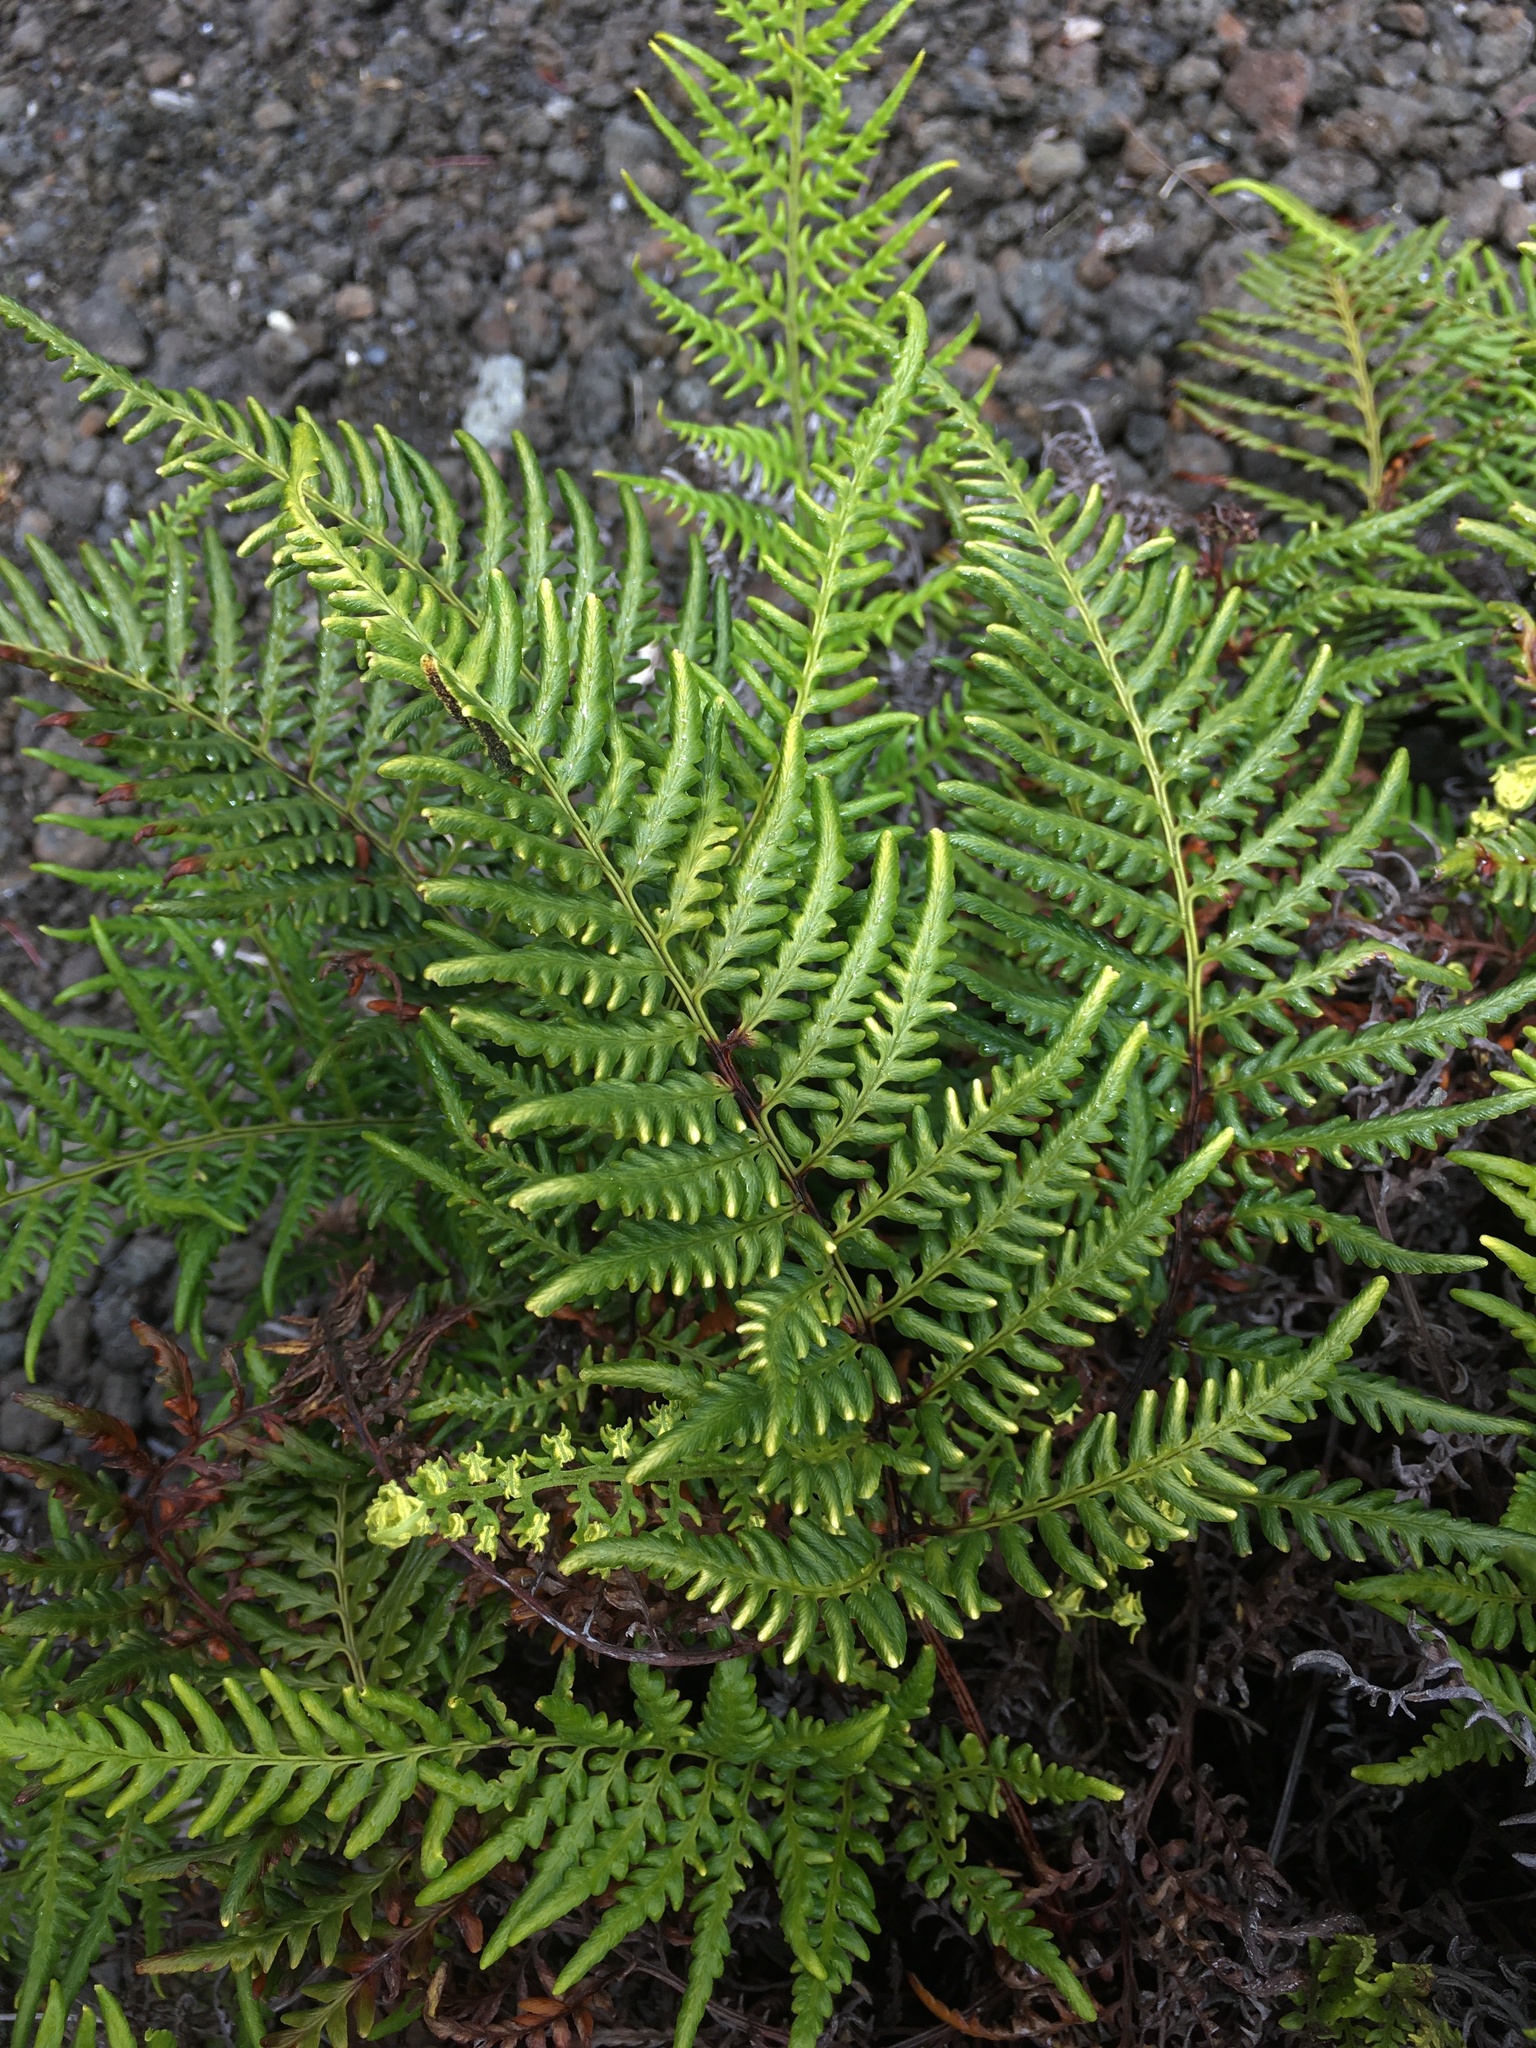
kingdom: Plantae
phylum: Tracheophyta
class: Polypodiopsida
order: Polypodiales
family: Pteridaceae
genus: Pityrogramma
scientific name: Pityrogramma austroamericana
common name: Leatherleaf goldback fern
